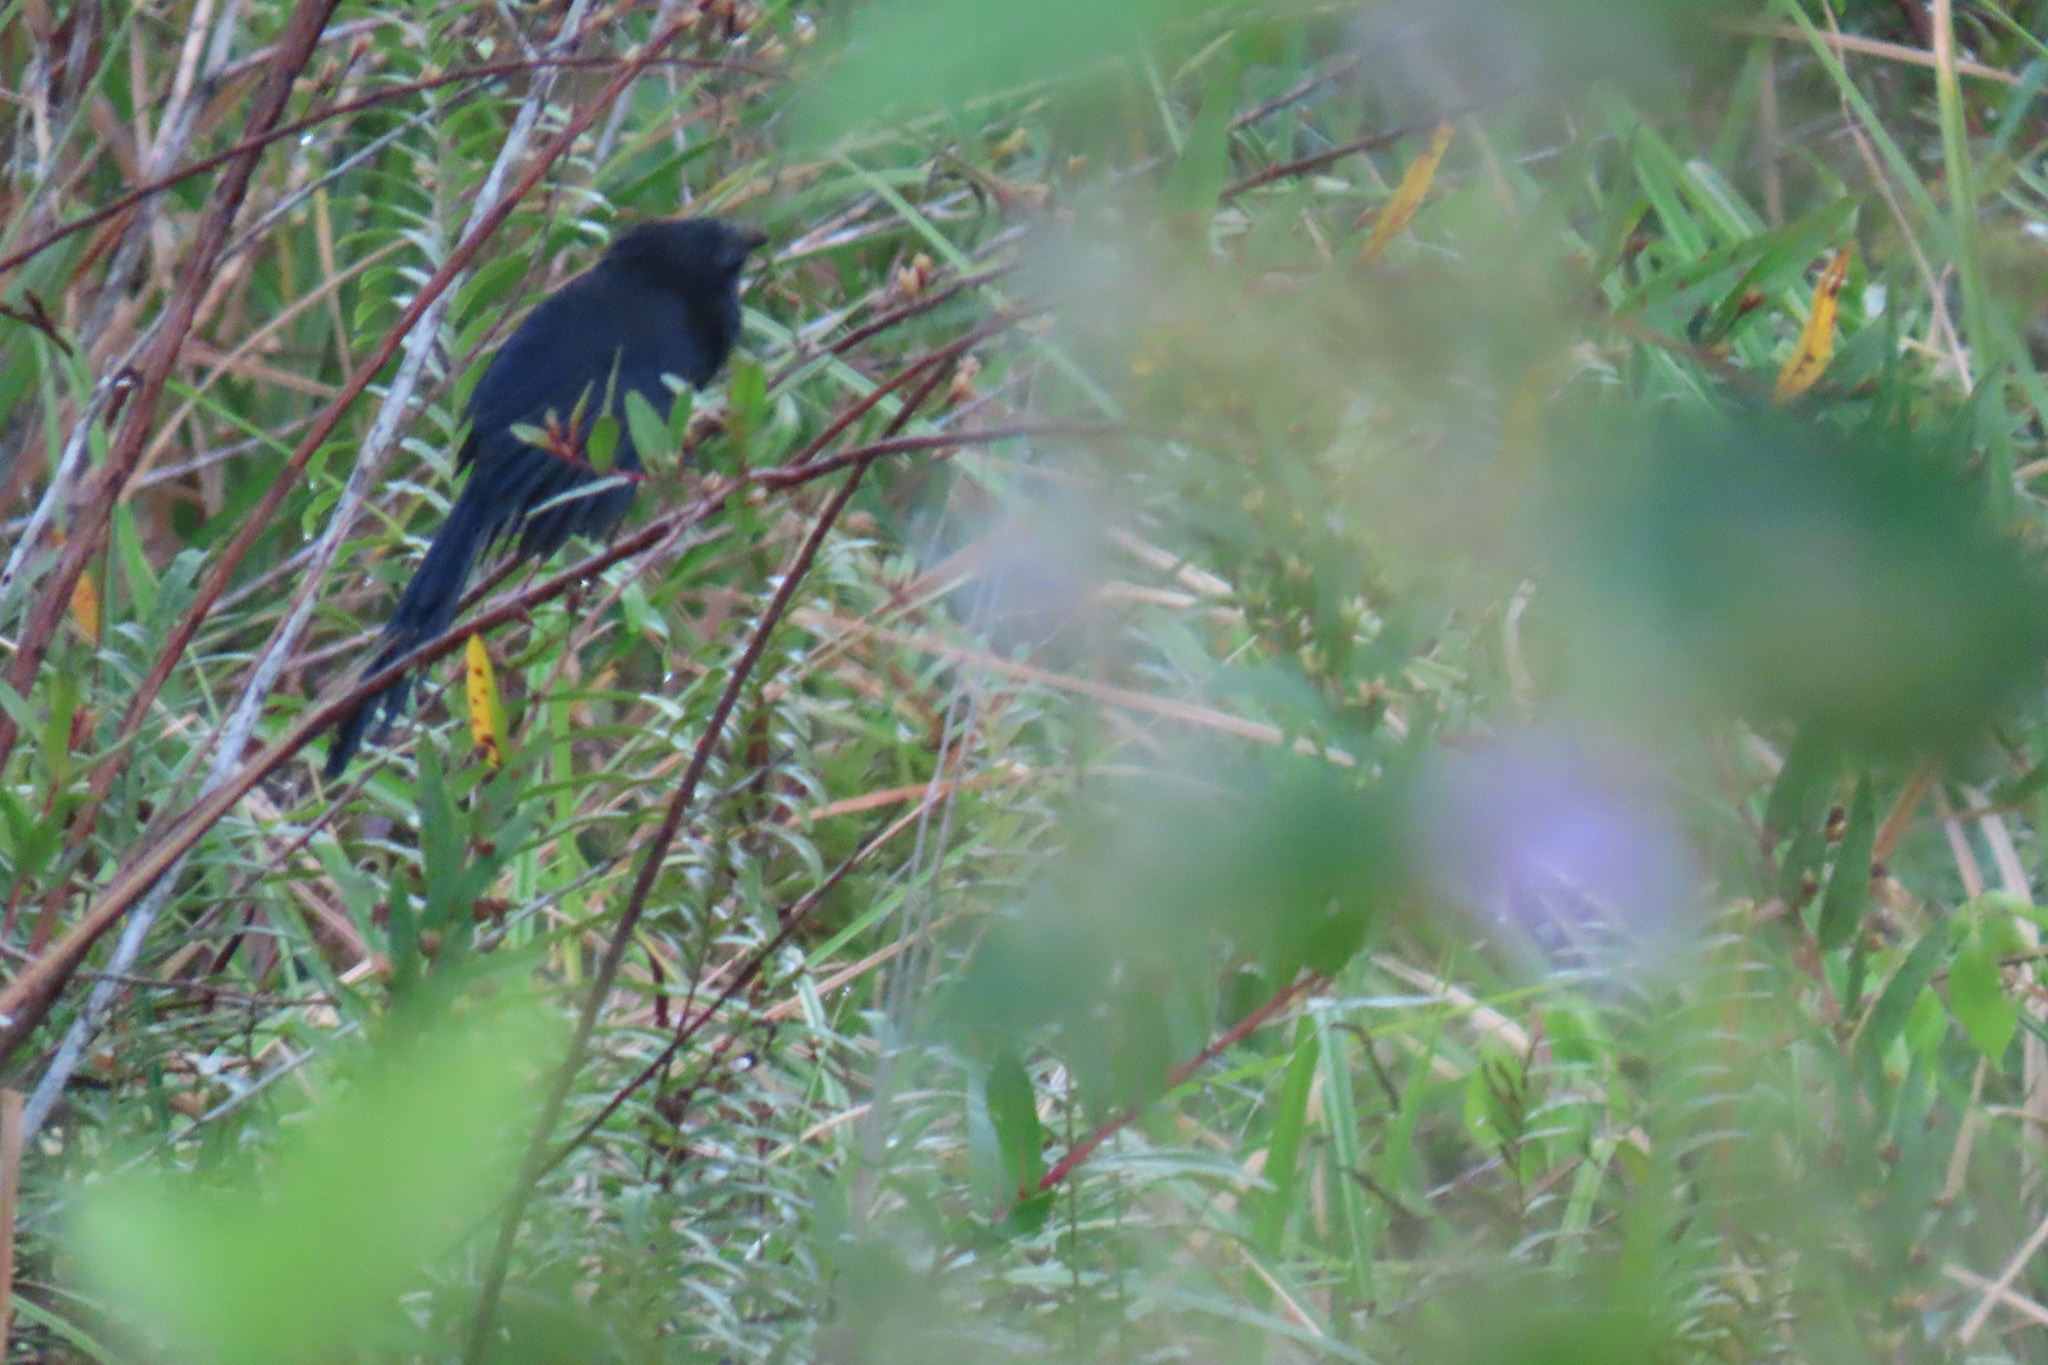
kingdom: Animalia
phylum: Chordata
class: Aves
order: Cuculiformes
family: Cuculidae
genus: Crotophaga
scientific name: Crotophaga sulcirostris
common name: Groove-billed ani
